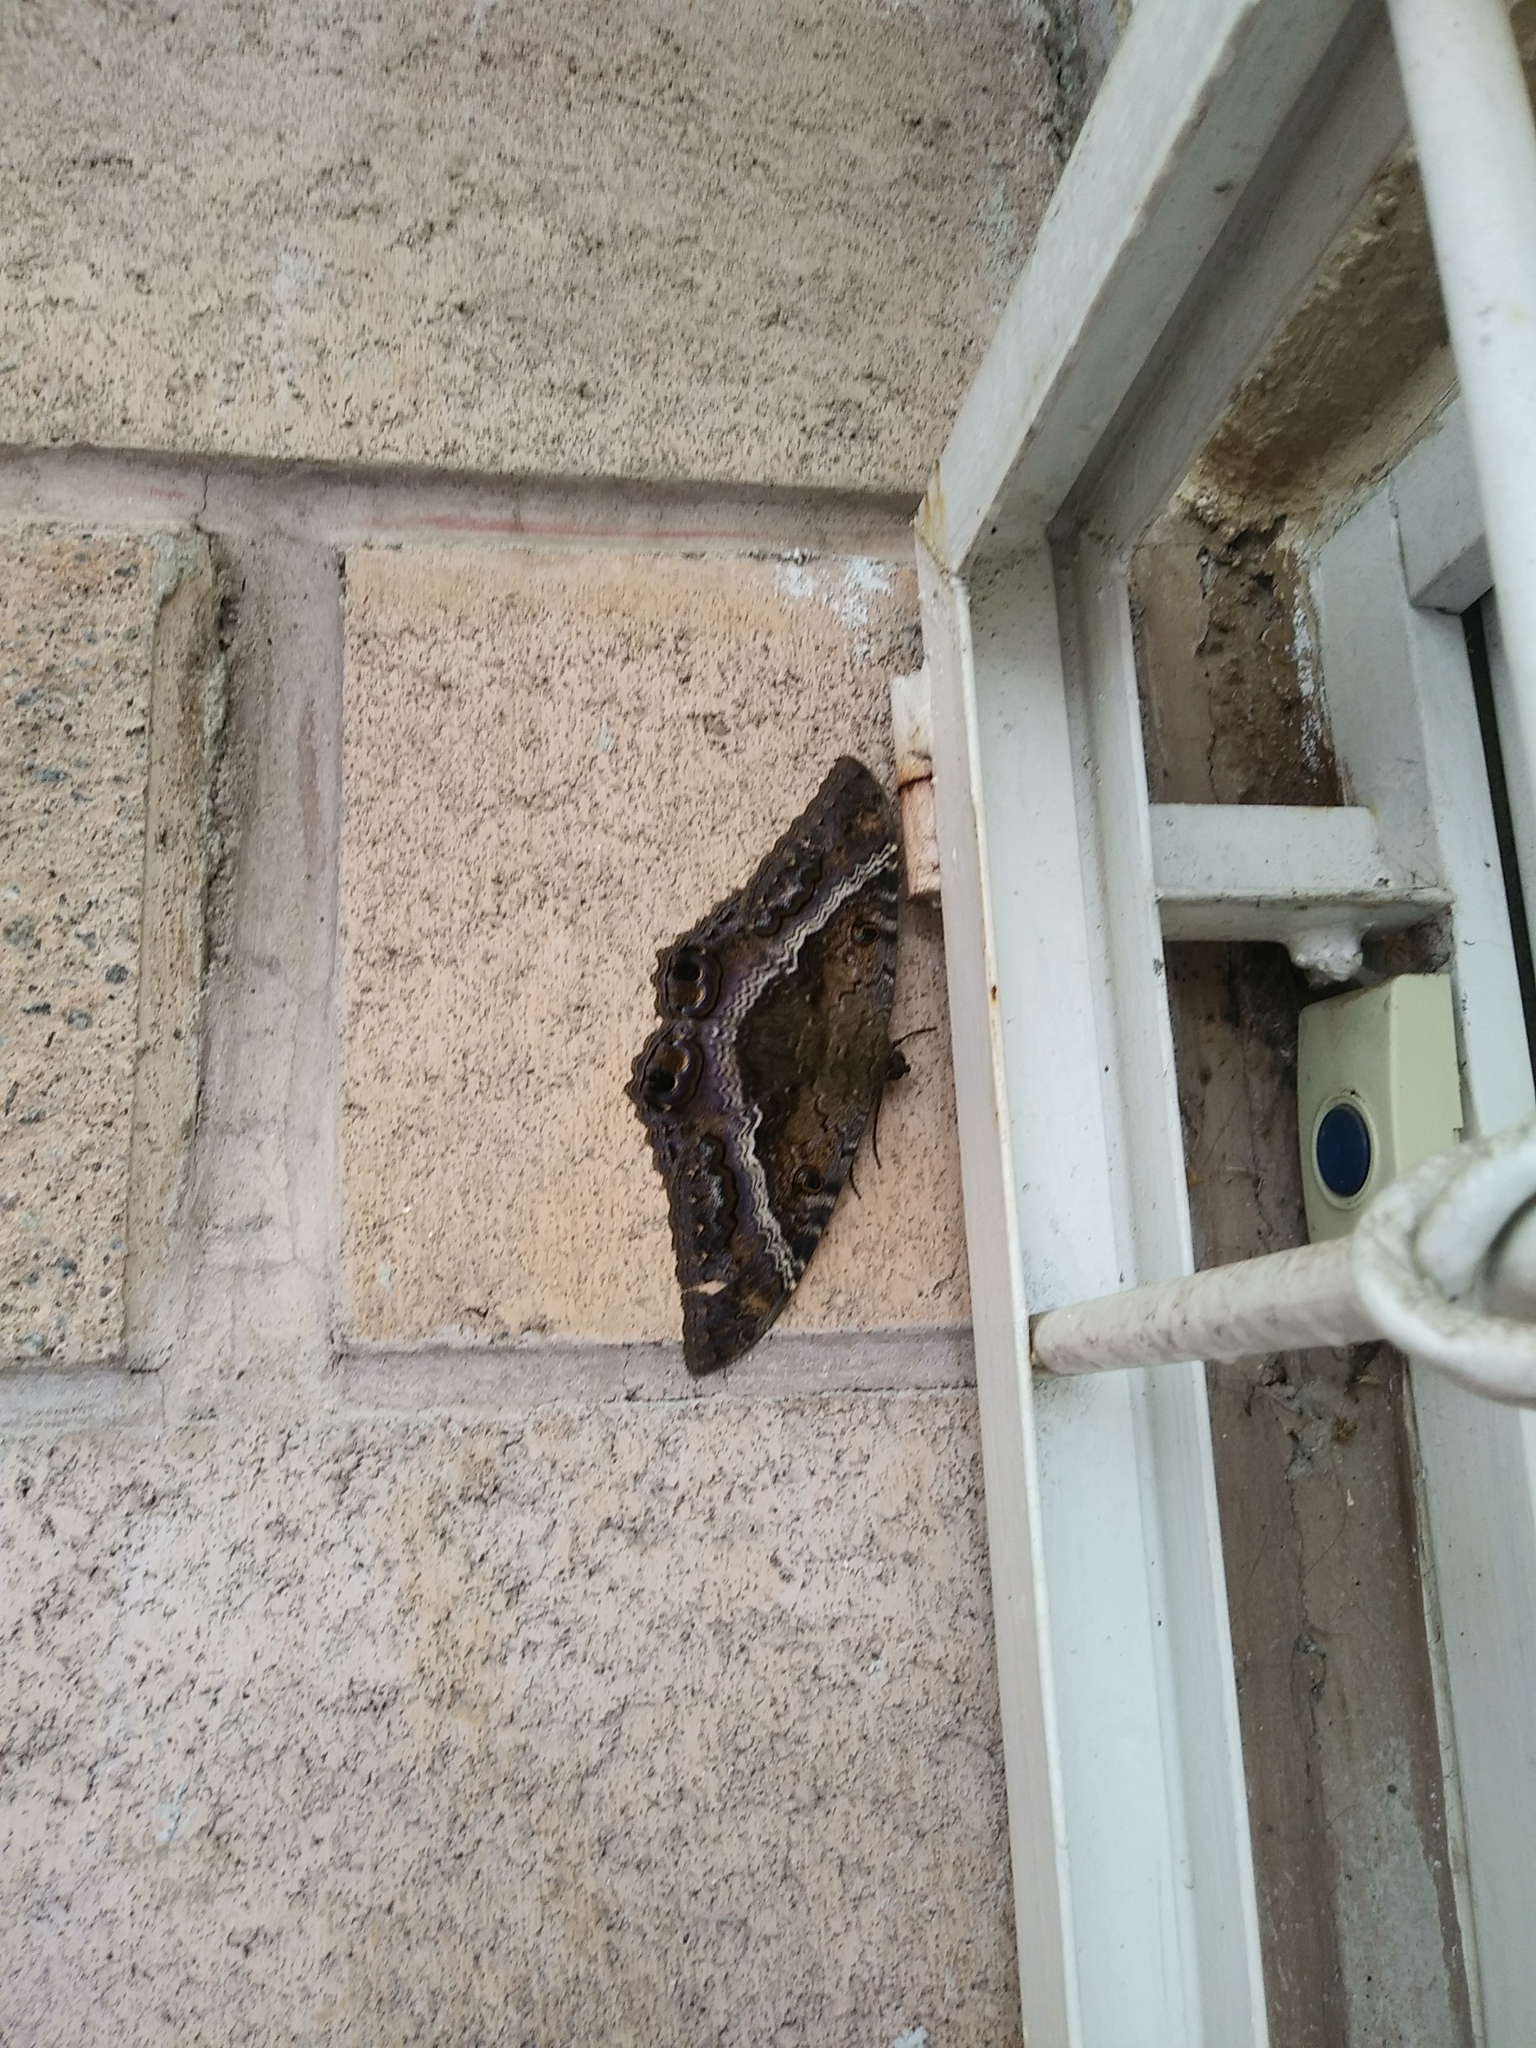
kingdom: Animalia
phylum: Arthropoda
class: Insecta
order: Lepidoptera
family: Erebidae
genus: Ascalapha
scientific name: Ascalapha odorata
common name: Black witch
